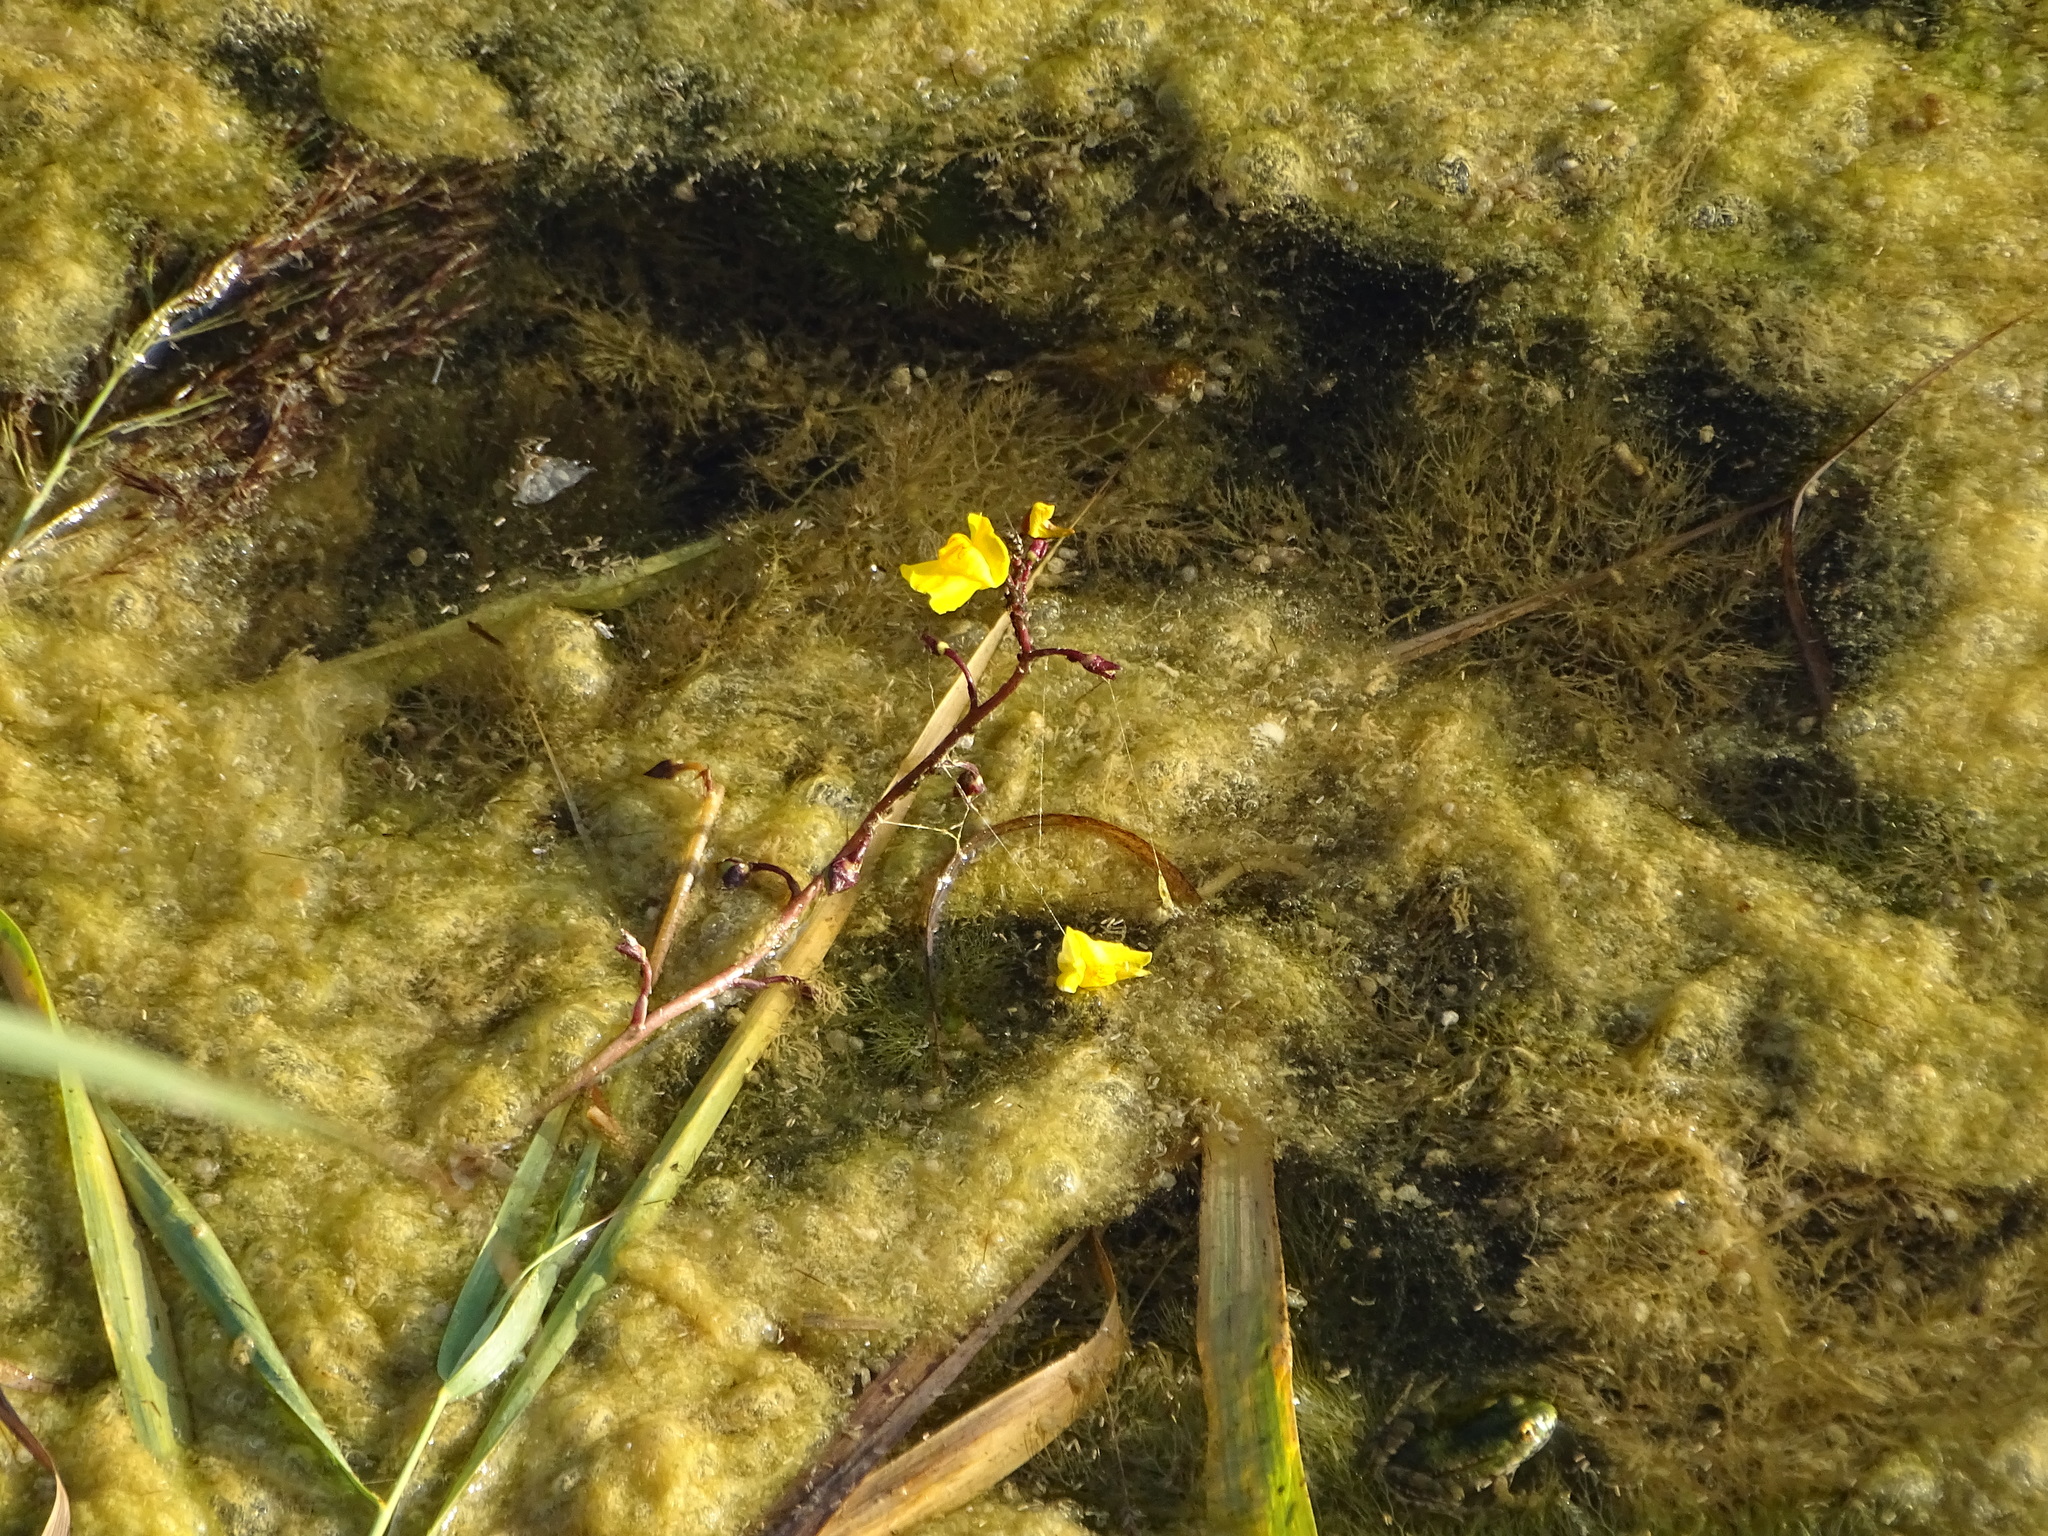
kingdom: Plantae
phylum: Tracheophyta
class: Magnoliopsida
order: Lamiales
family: Lentibulariaceae
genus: Utricularia
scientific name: Utricularia vulgaris
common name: Greater bladderwort
